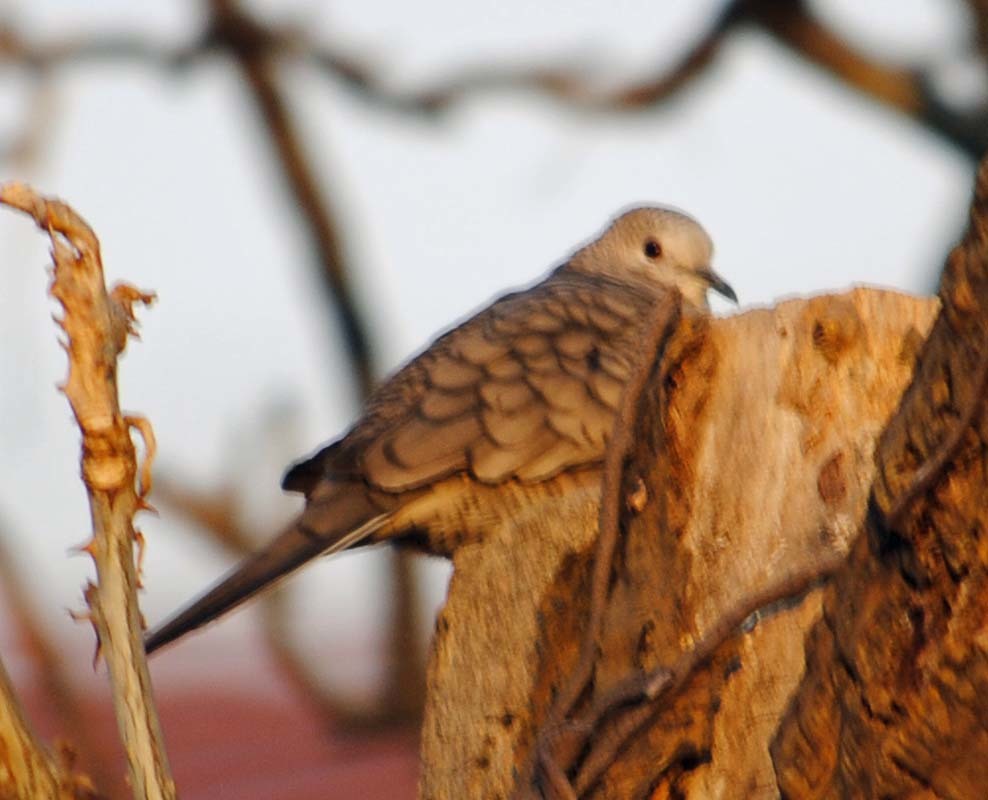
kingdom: Animalia
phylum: Chordata
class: Aves
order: Columbiformes
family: Columbidae
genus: Columbina
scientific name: Columbina inca
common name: Inca dove
